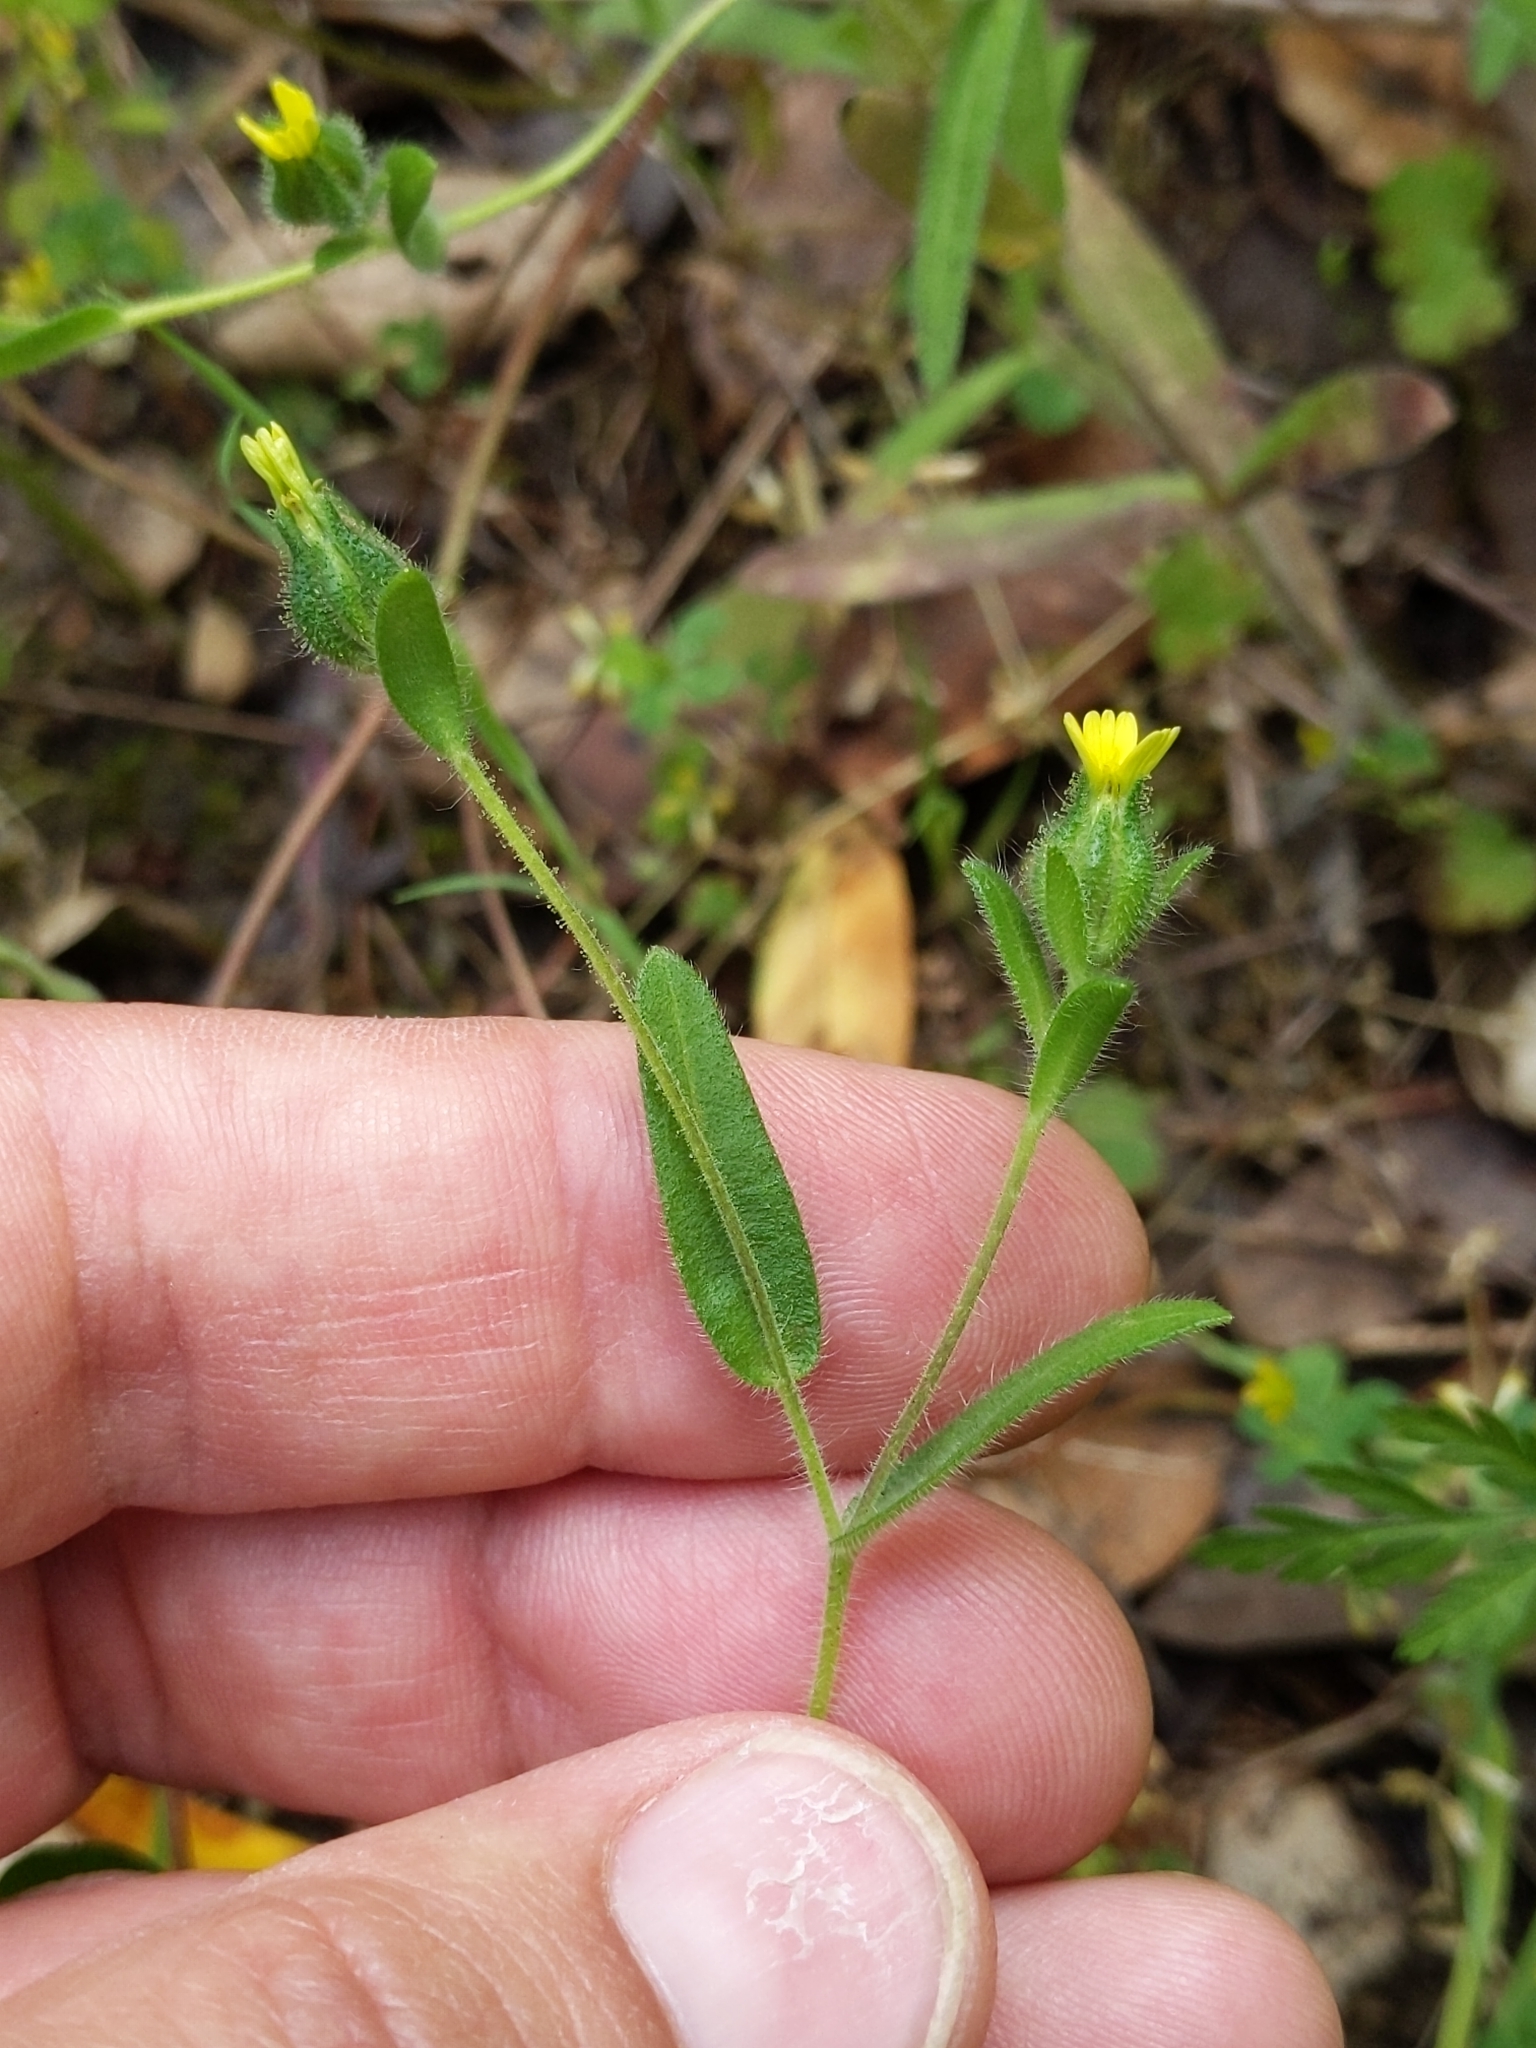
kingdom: Plantae
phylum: Tracheophyta
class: Magnoliopsida
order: Asterales
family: Asteraceae
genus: Madia
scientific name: Madia gracilis
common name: Grassy tarweed
